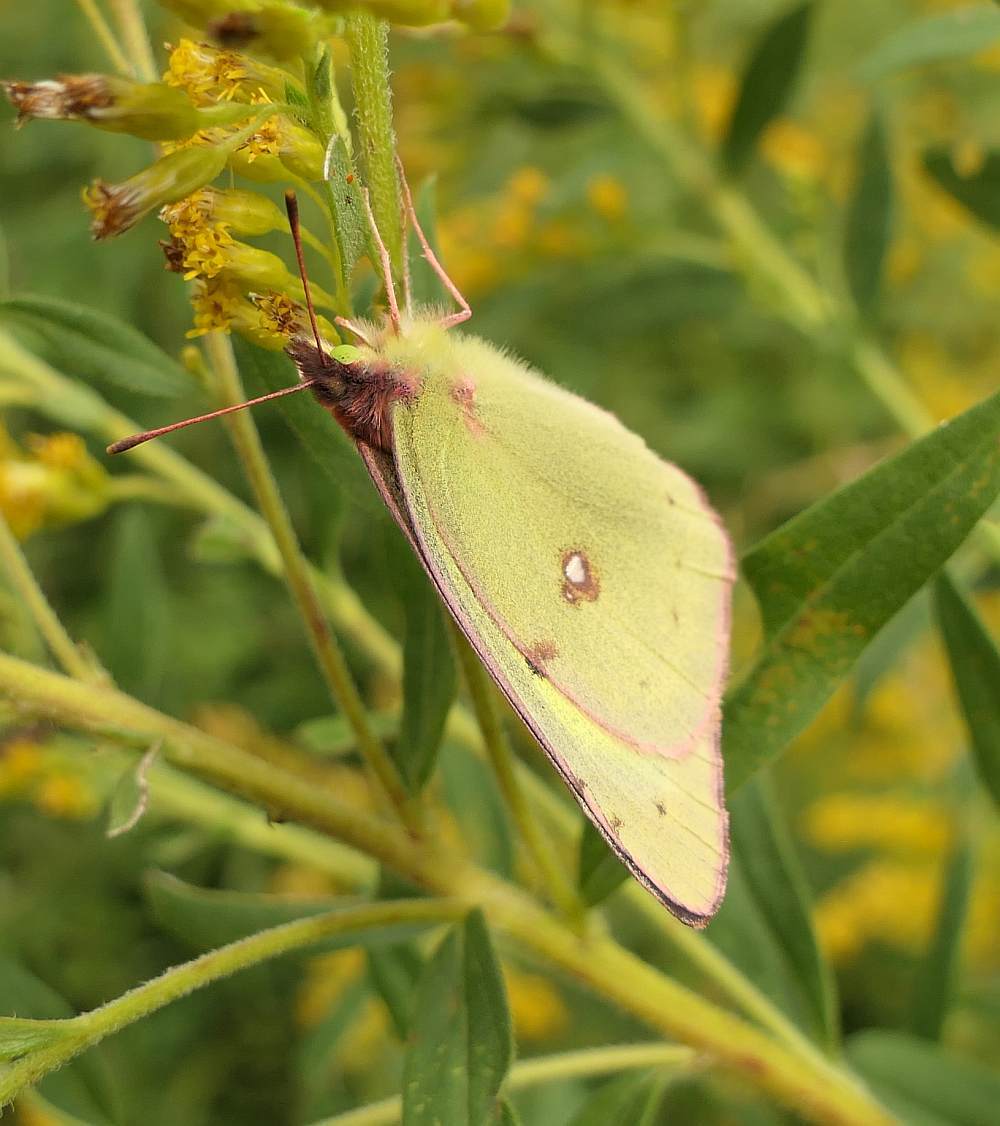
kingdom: Animalia
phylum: Arthropoda
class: Insecta
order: Lepidoptera
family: Pieridae
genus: Colias
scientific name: Colias philodice
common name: Clouded sulphur
